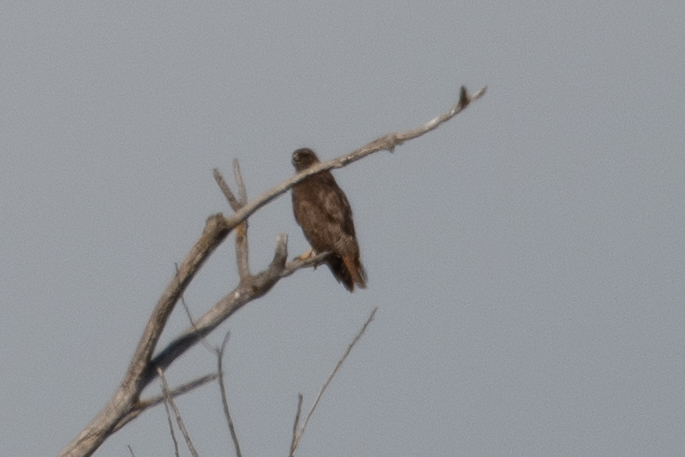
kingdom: Animalia
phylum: Chordata
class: Aves
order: Accipitriformes
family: Accipitridae
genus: Buteo
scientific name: Buteo jamaicensis
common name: Red-tailed hawk
